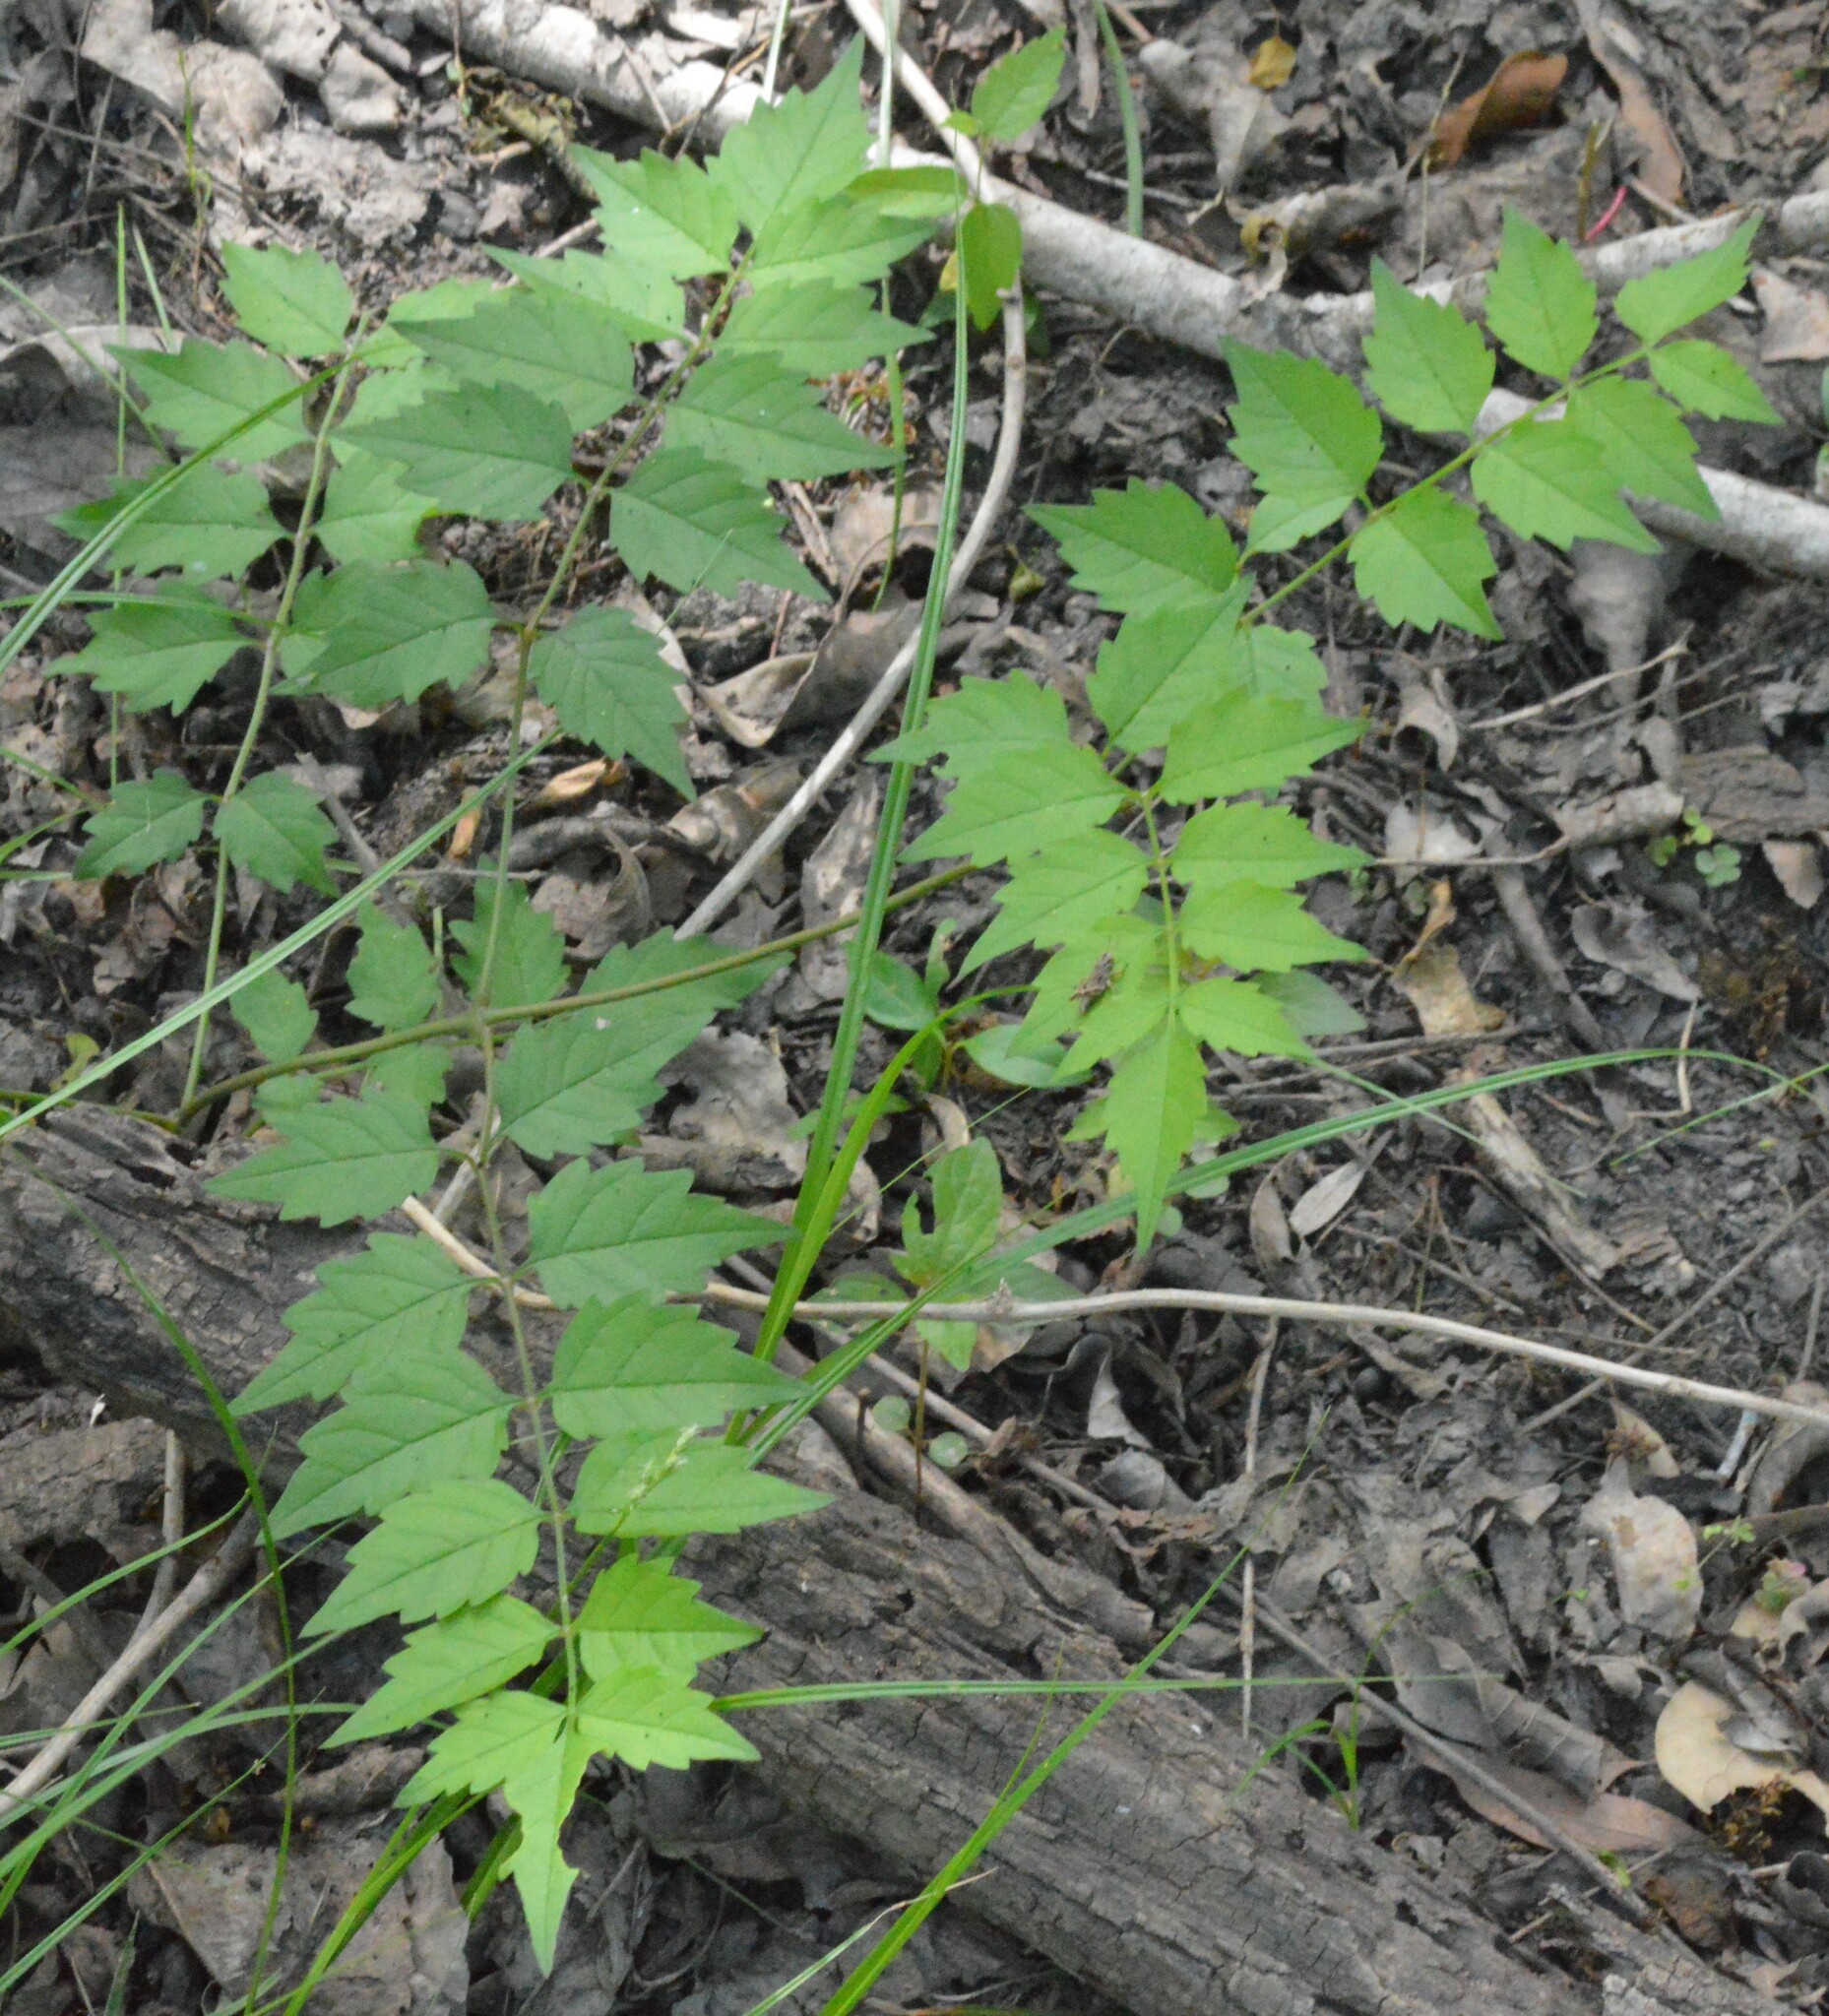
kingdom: Plantae
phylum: Tracheophyta
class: Magnoliopsida
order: Lamiales
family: Bignoniaceae
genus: Campsis
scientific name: Campsis radicans
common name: Trumpet-creeper
